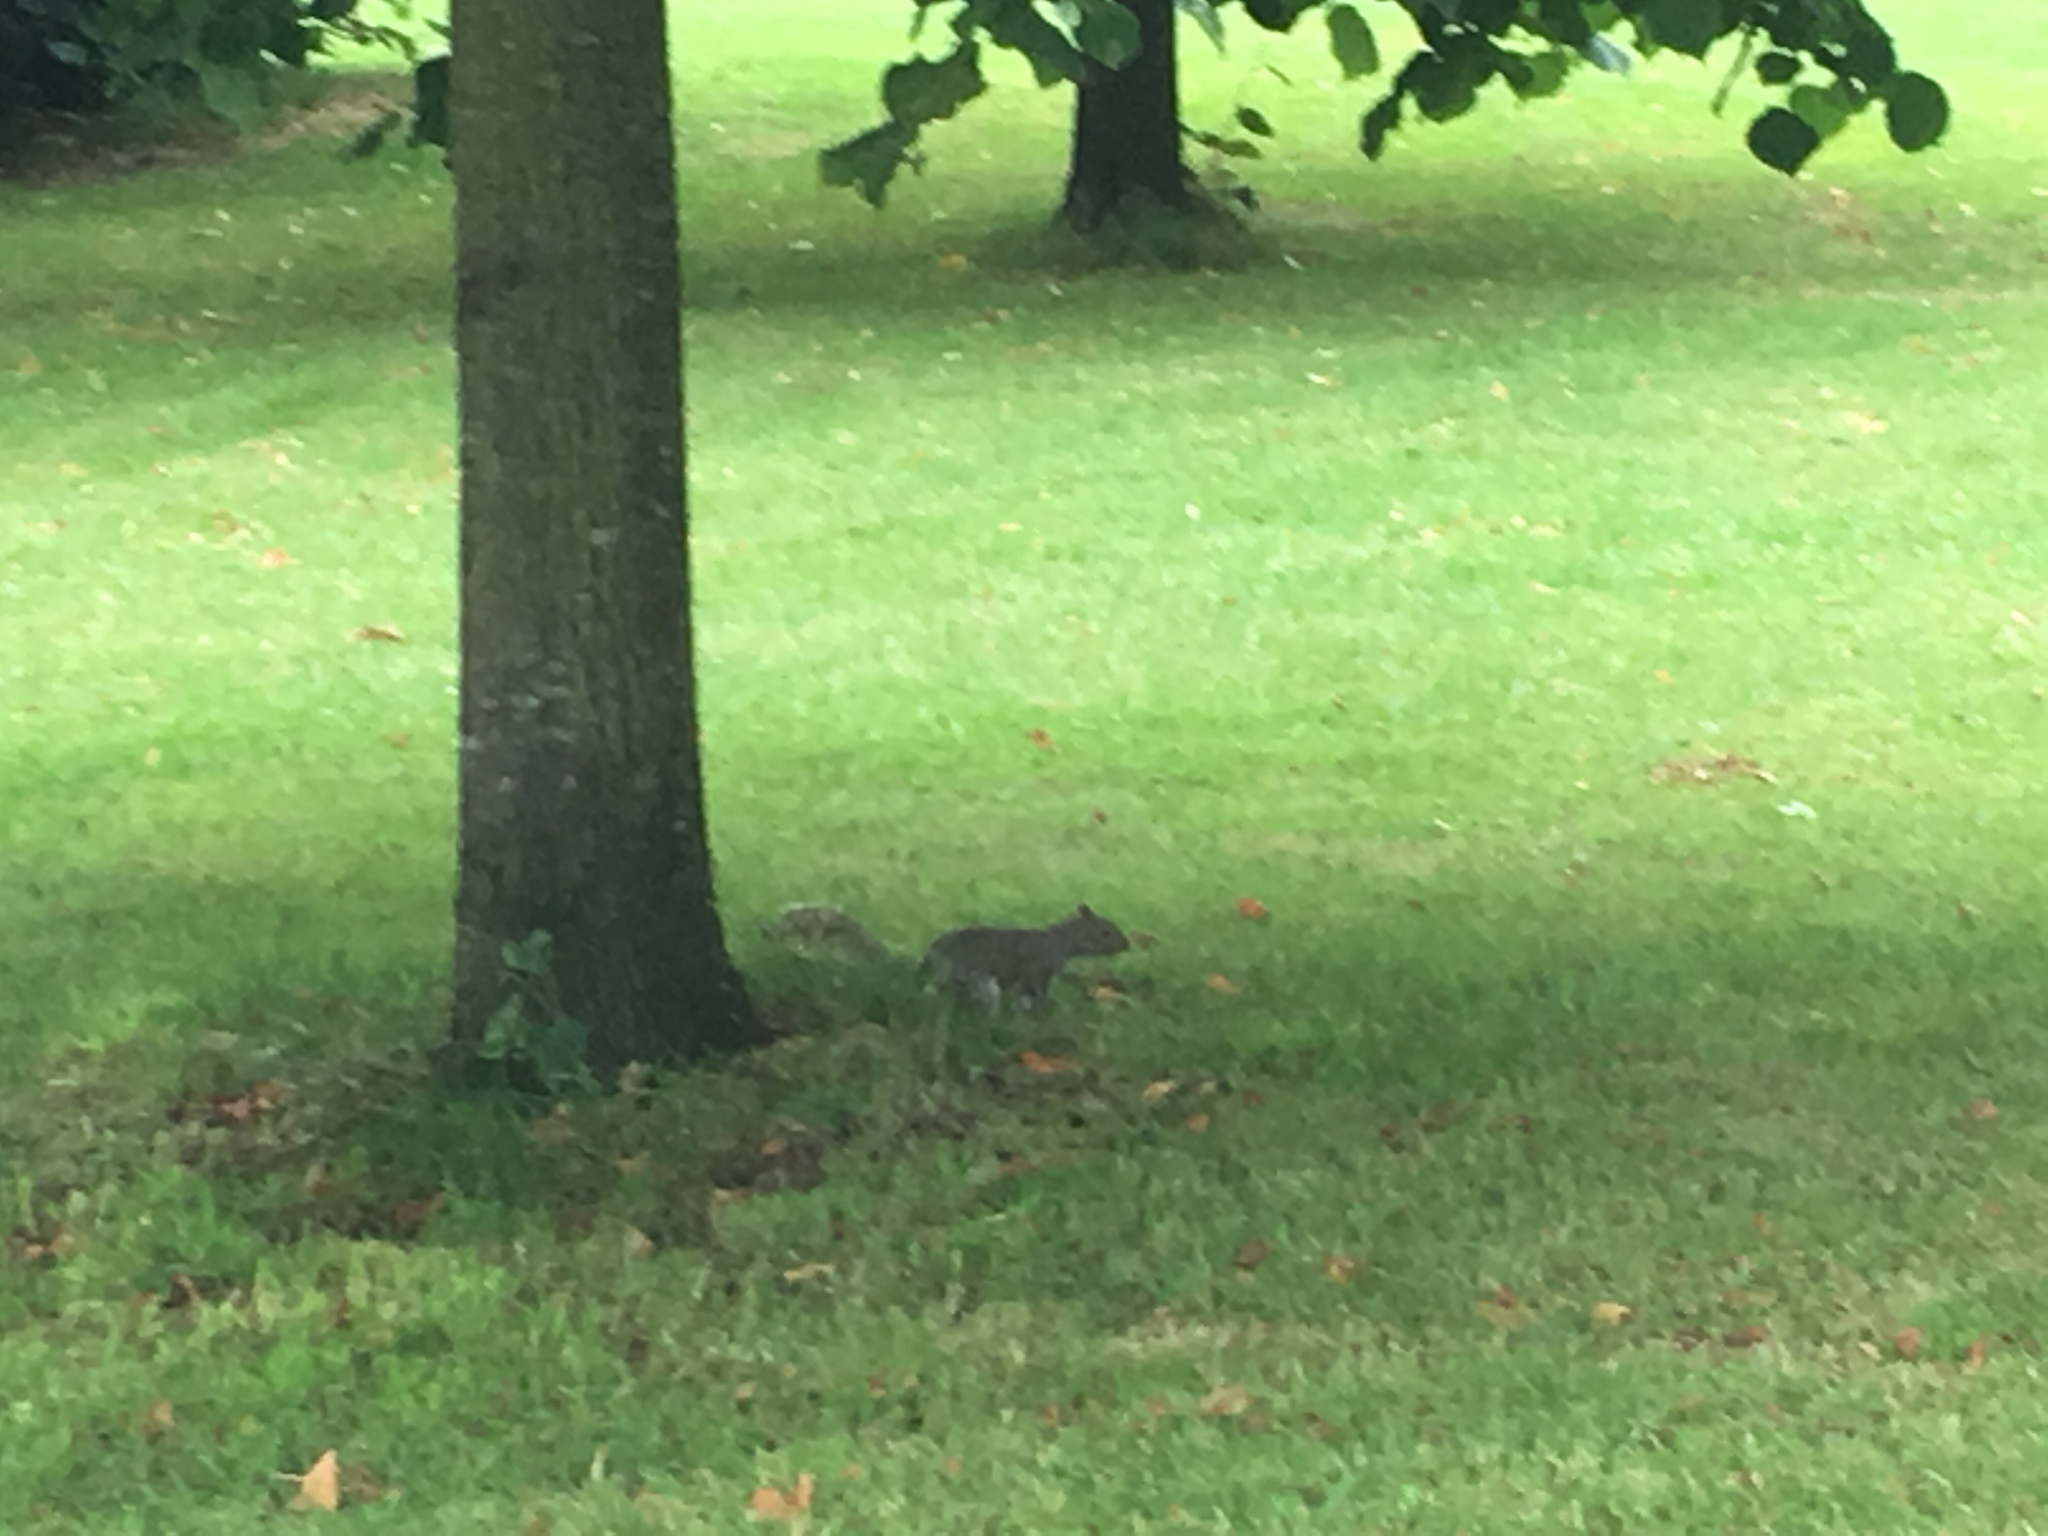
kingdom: Animalia
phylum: Chordata
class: Mammalia
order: Rodentia
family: Sciuridae
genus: Sciurus
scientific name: Sciurus carolinensis
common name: Eastern gray squirrel
